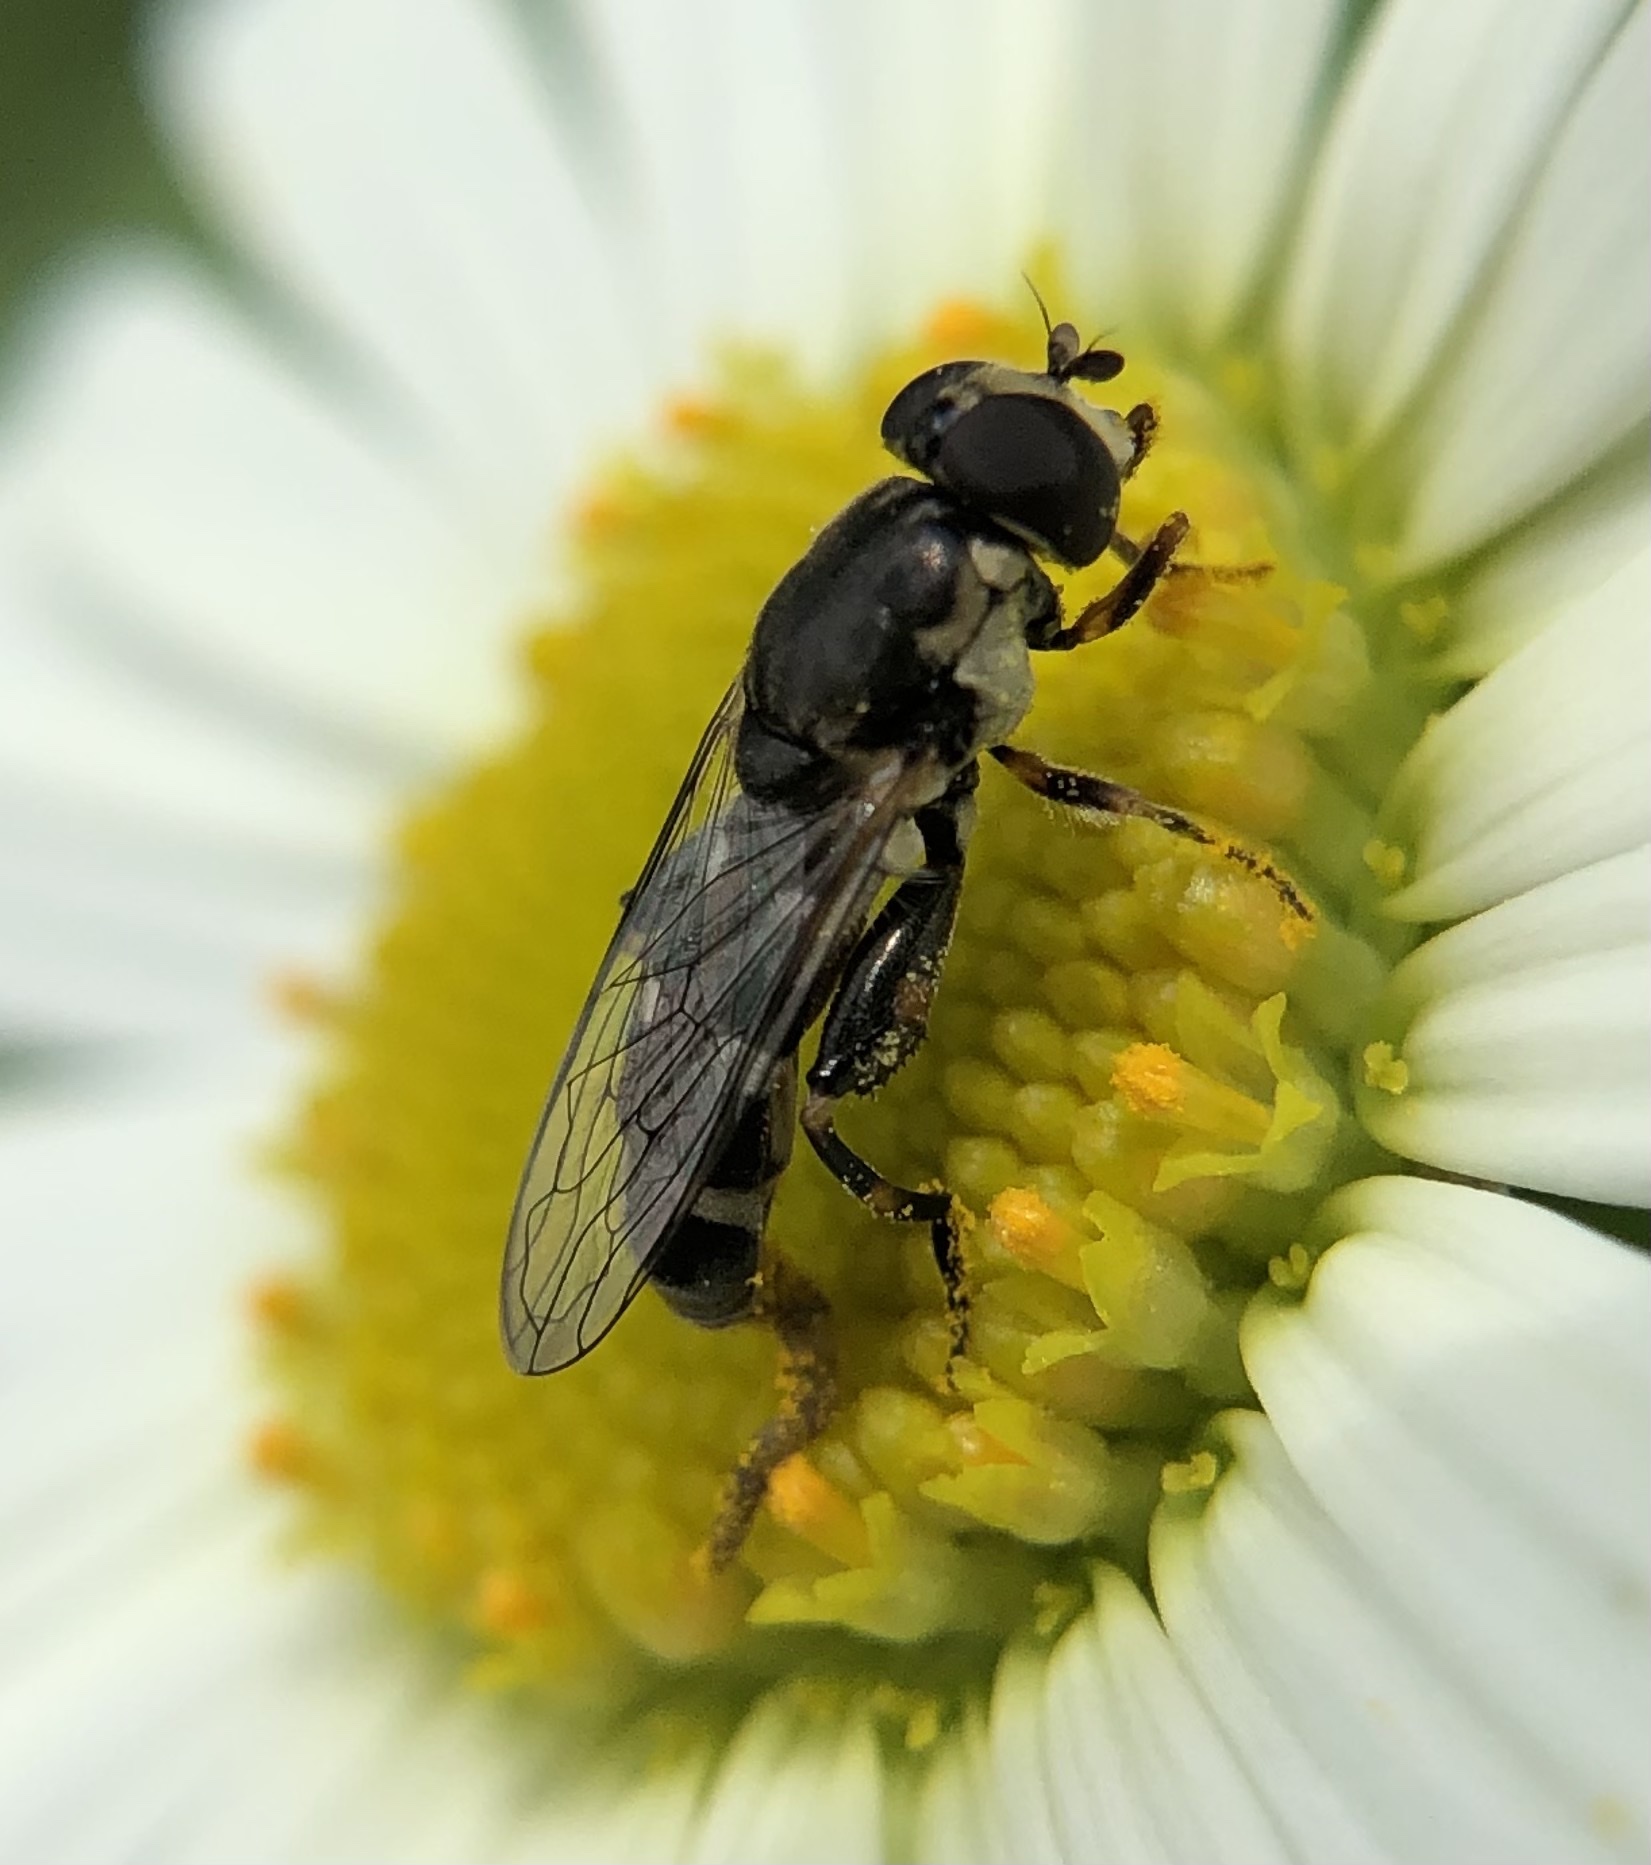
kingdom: Animalia
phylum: Arthropoda
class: Insecta
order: Diptera
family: Syrphidae
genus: Syritta
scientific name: Syritta pipiens
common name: Hover fly
